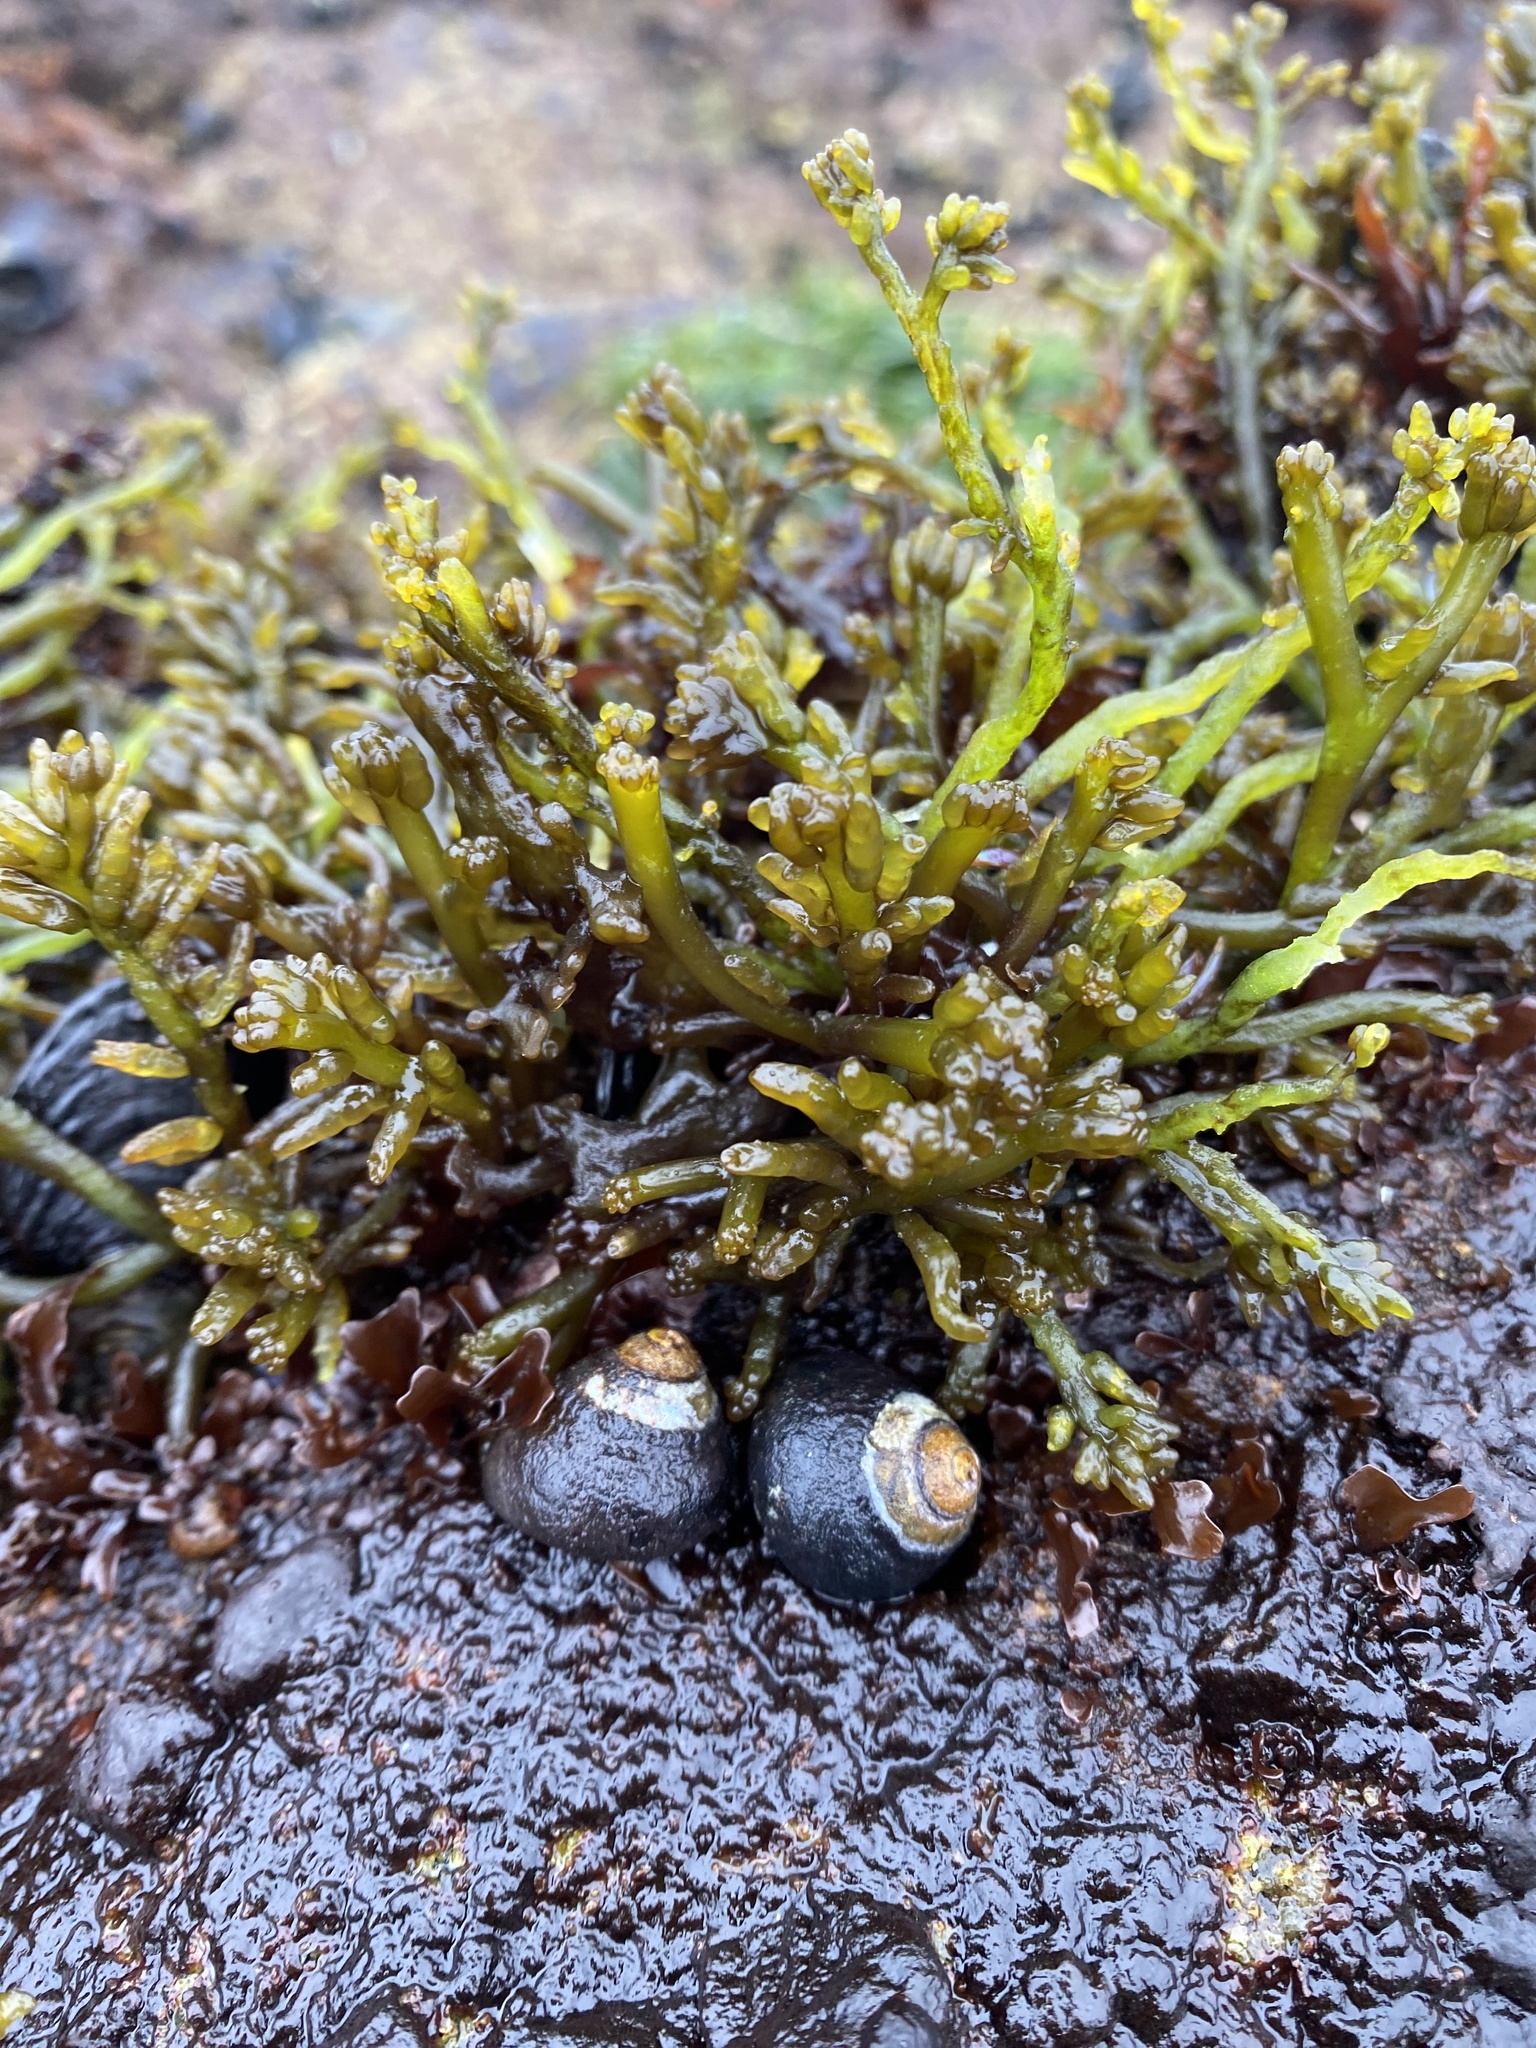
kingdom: Plantae
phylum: Rhodophyta
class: Florideophyceae
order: Rhodymeniales
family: Champiaceae
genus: Neogastroclonium
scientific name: Neogastroclonium subarticulatum
